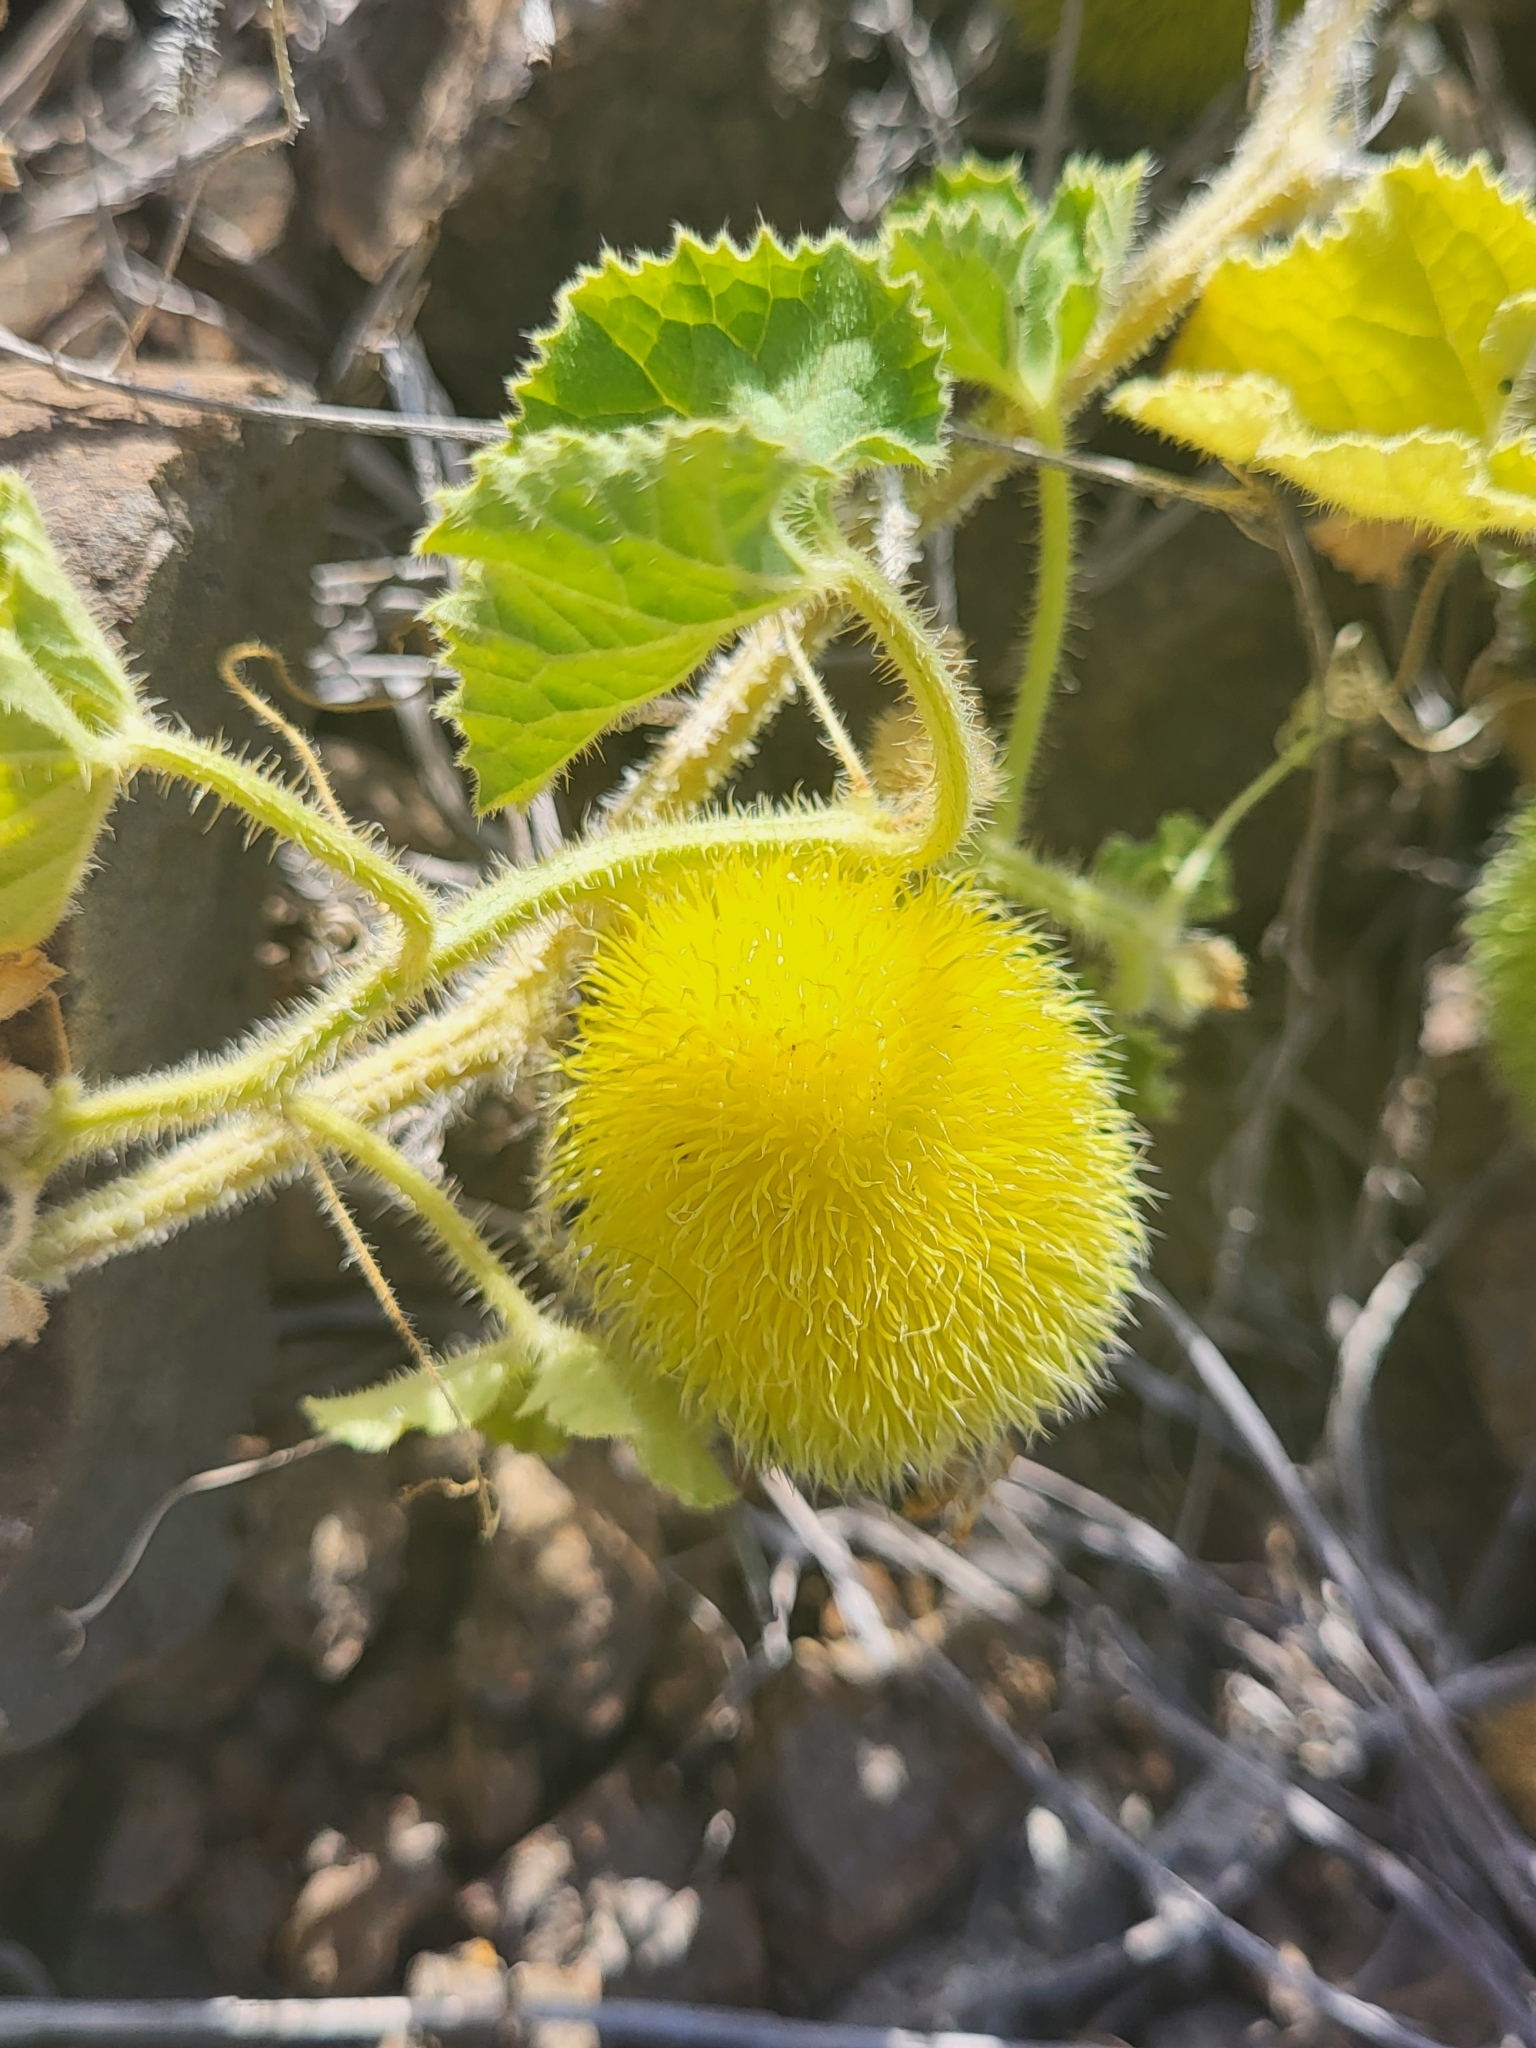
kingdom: Plantae
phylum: Tracheophyta
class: Magnoliopsida
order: Cucurbitales
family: Cucurbitaceae
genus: Cucumis
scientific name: Cucumis dipsaceus
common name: Hedgehog gourd
